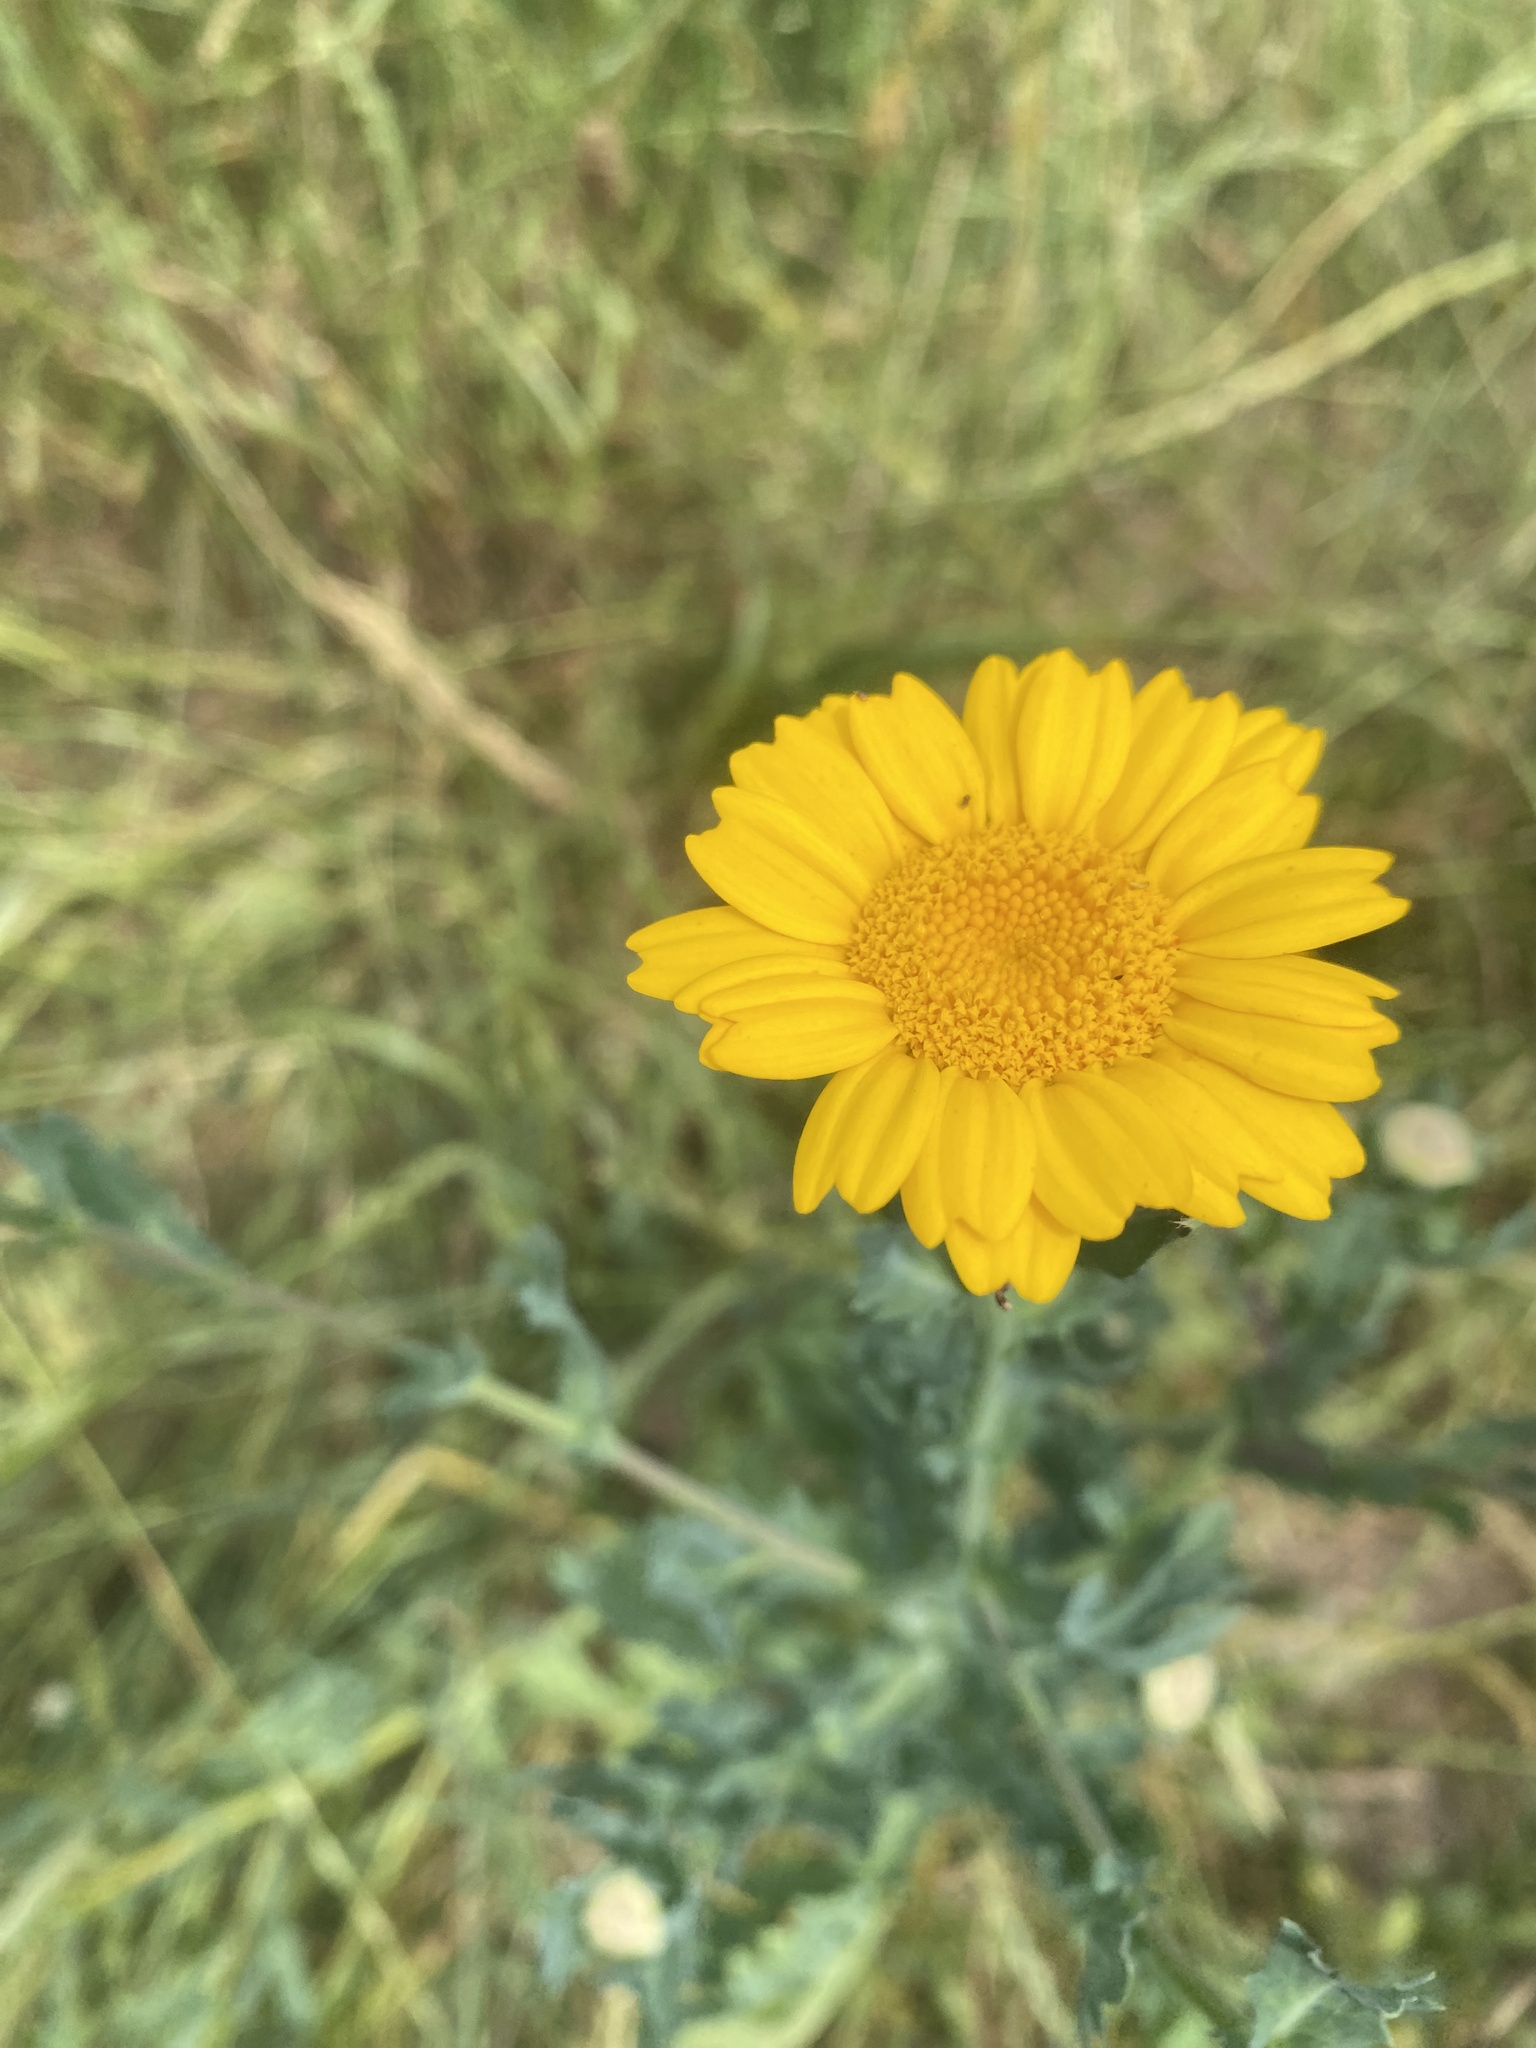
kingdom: Plantae
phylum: Tracheophyta
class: Magnoliopsida
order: Asterales
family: Asteraceae
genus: Glebionis
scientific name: Glebionis segetum
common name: Corndaisy
